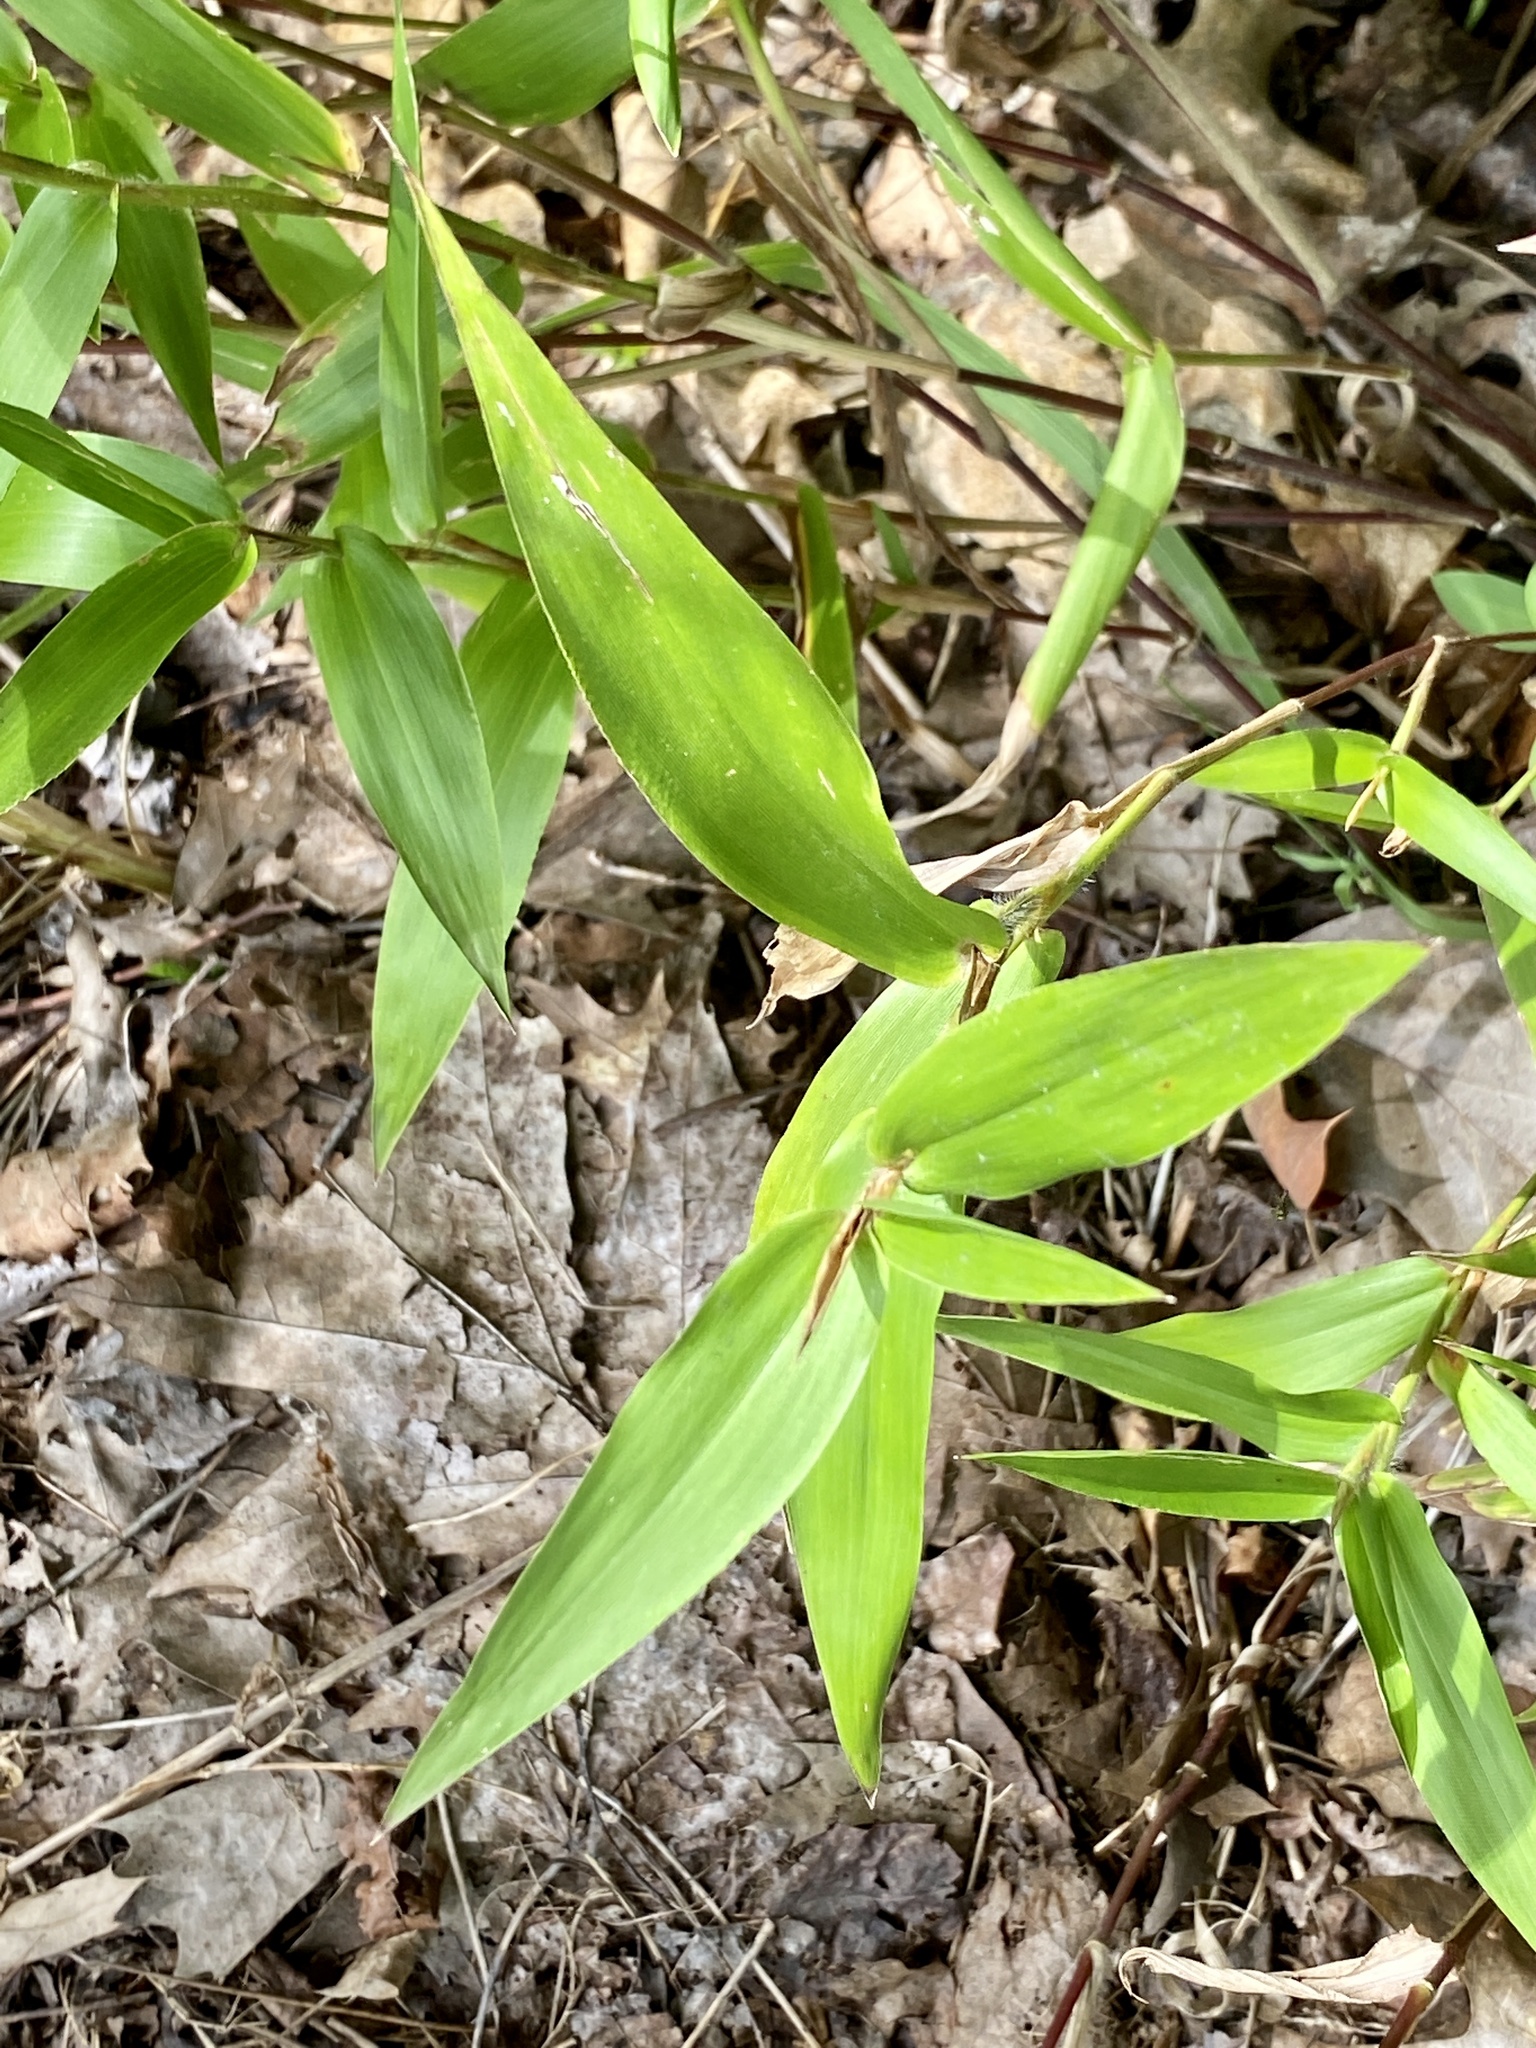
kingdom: Plantae
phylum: Tracheophyta
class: Liliopsida
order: Poales
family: Poaceae
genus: Dichanthelium
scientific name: Dichanthelium clandestinum
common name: Deer-tongue grass
